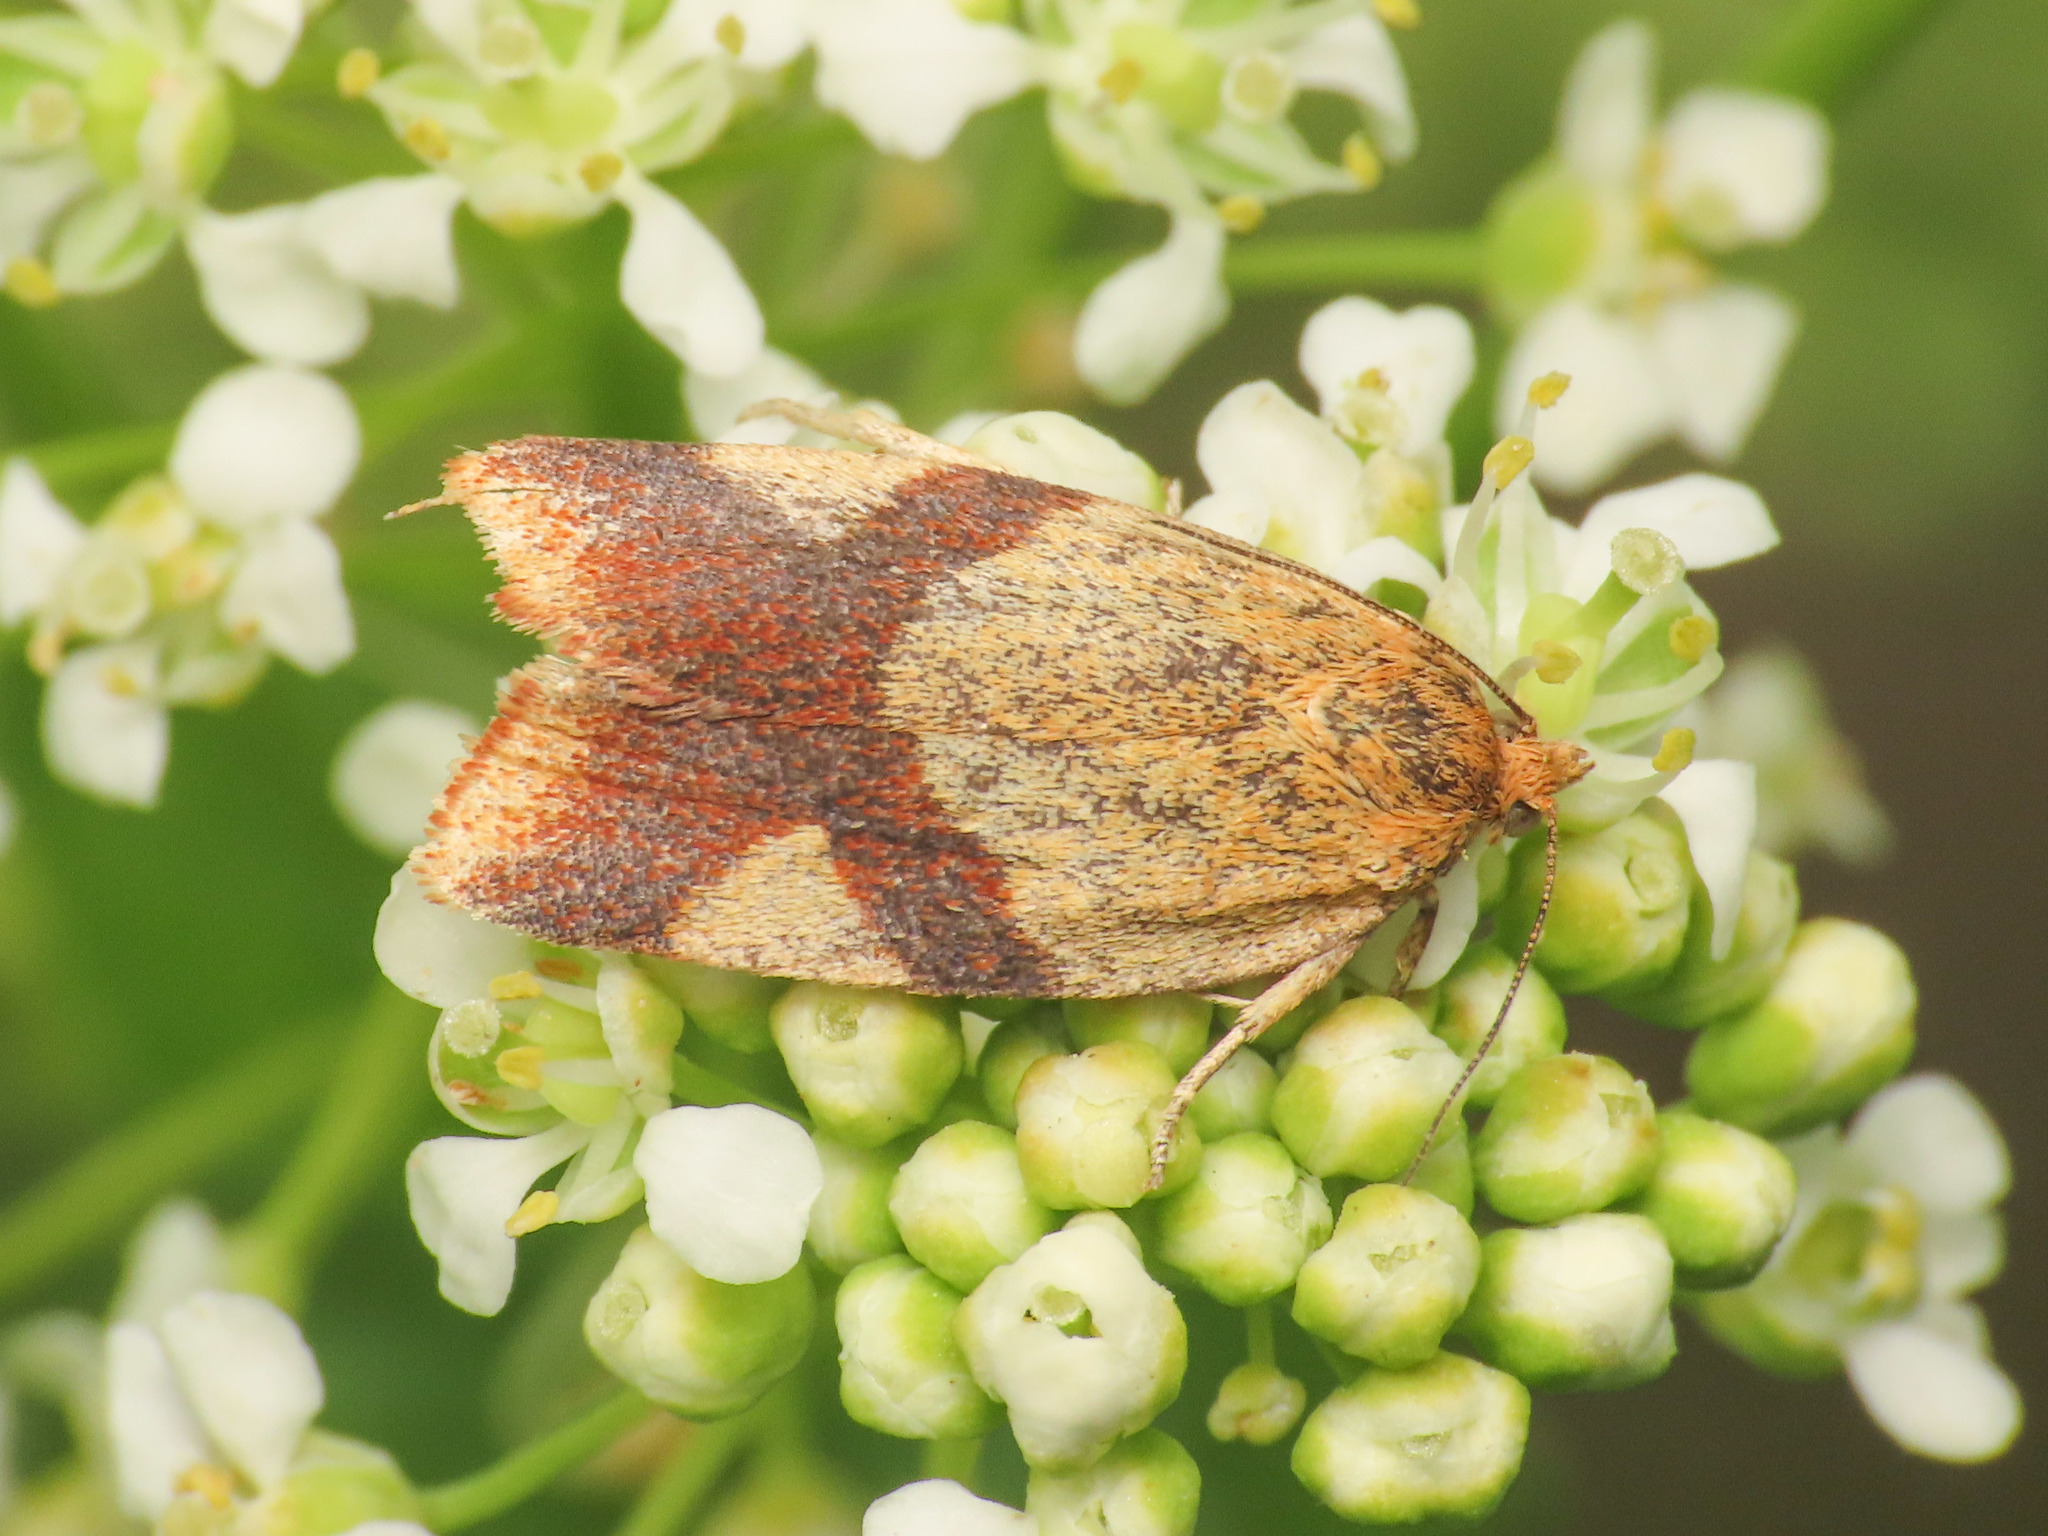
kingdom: Animalia
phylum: Arthropoda
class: Insecta
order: Lepidoptera
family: Tortricidae
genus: Aphelia
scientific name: Aphelia ochreana
